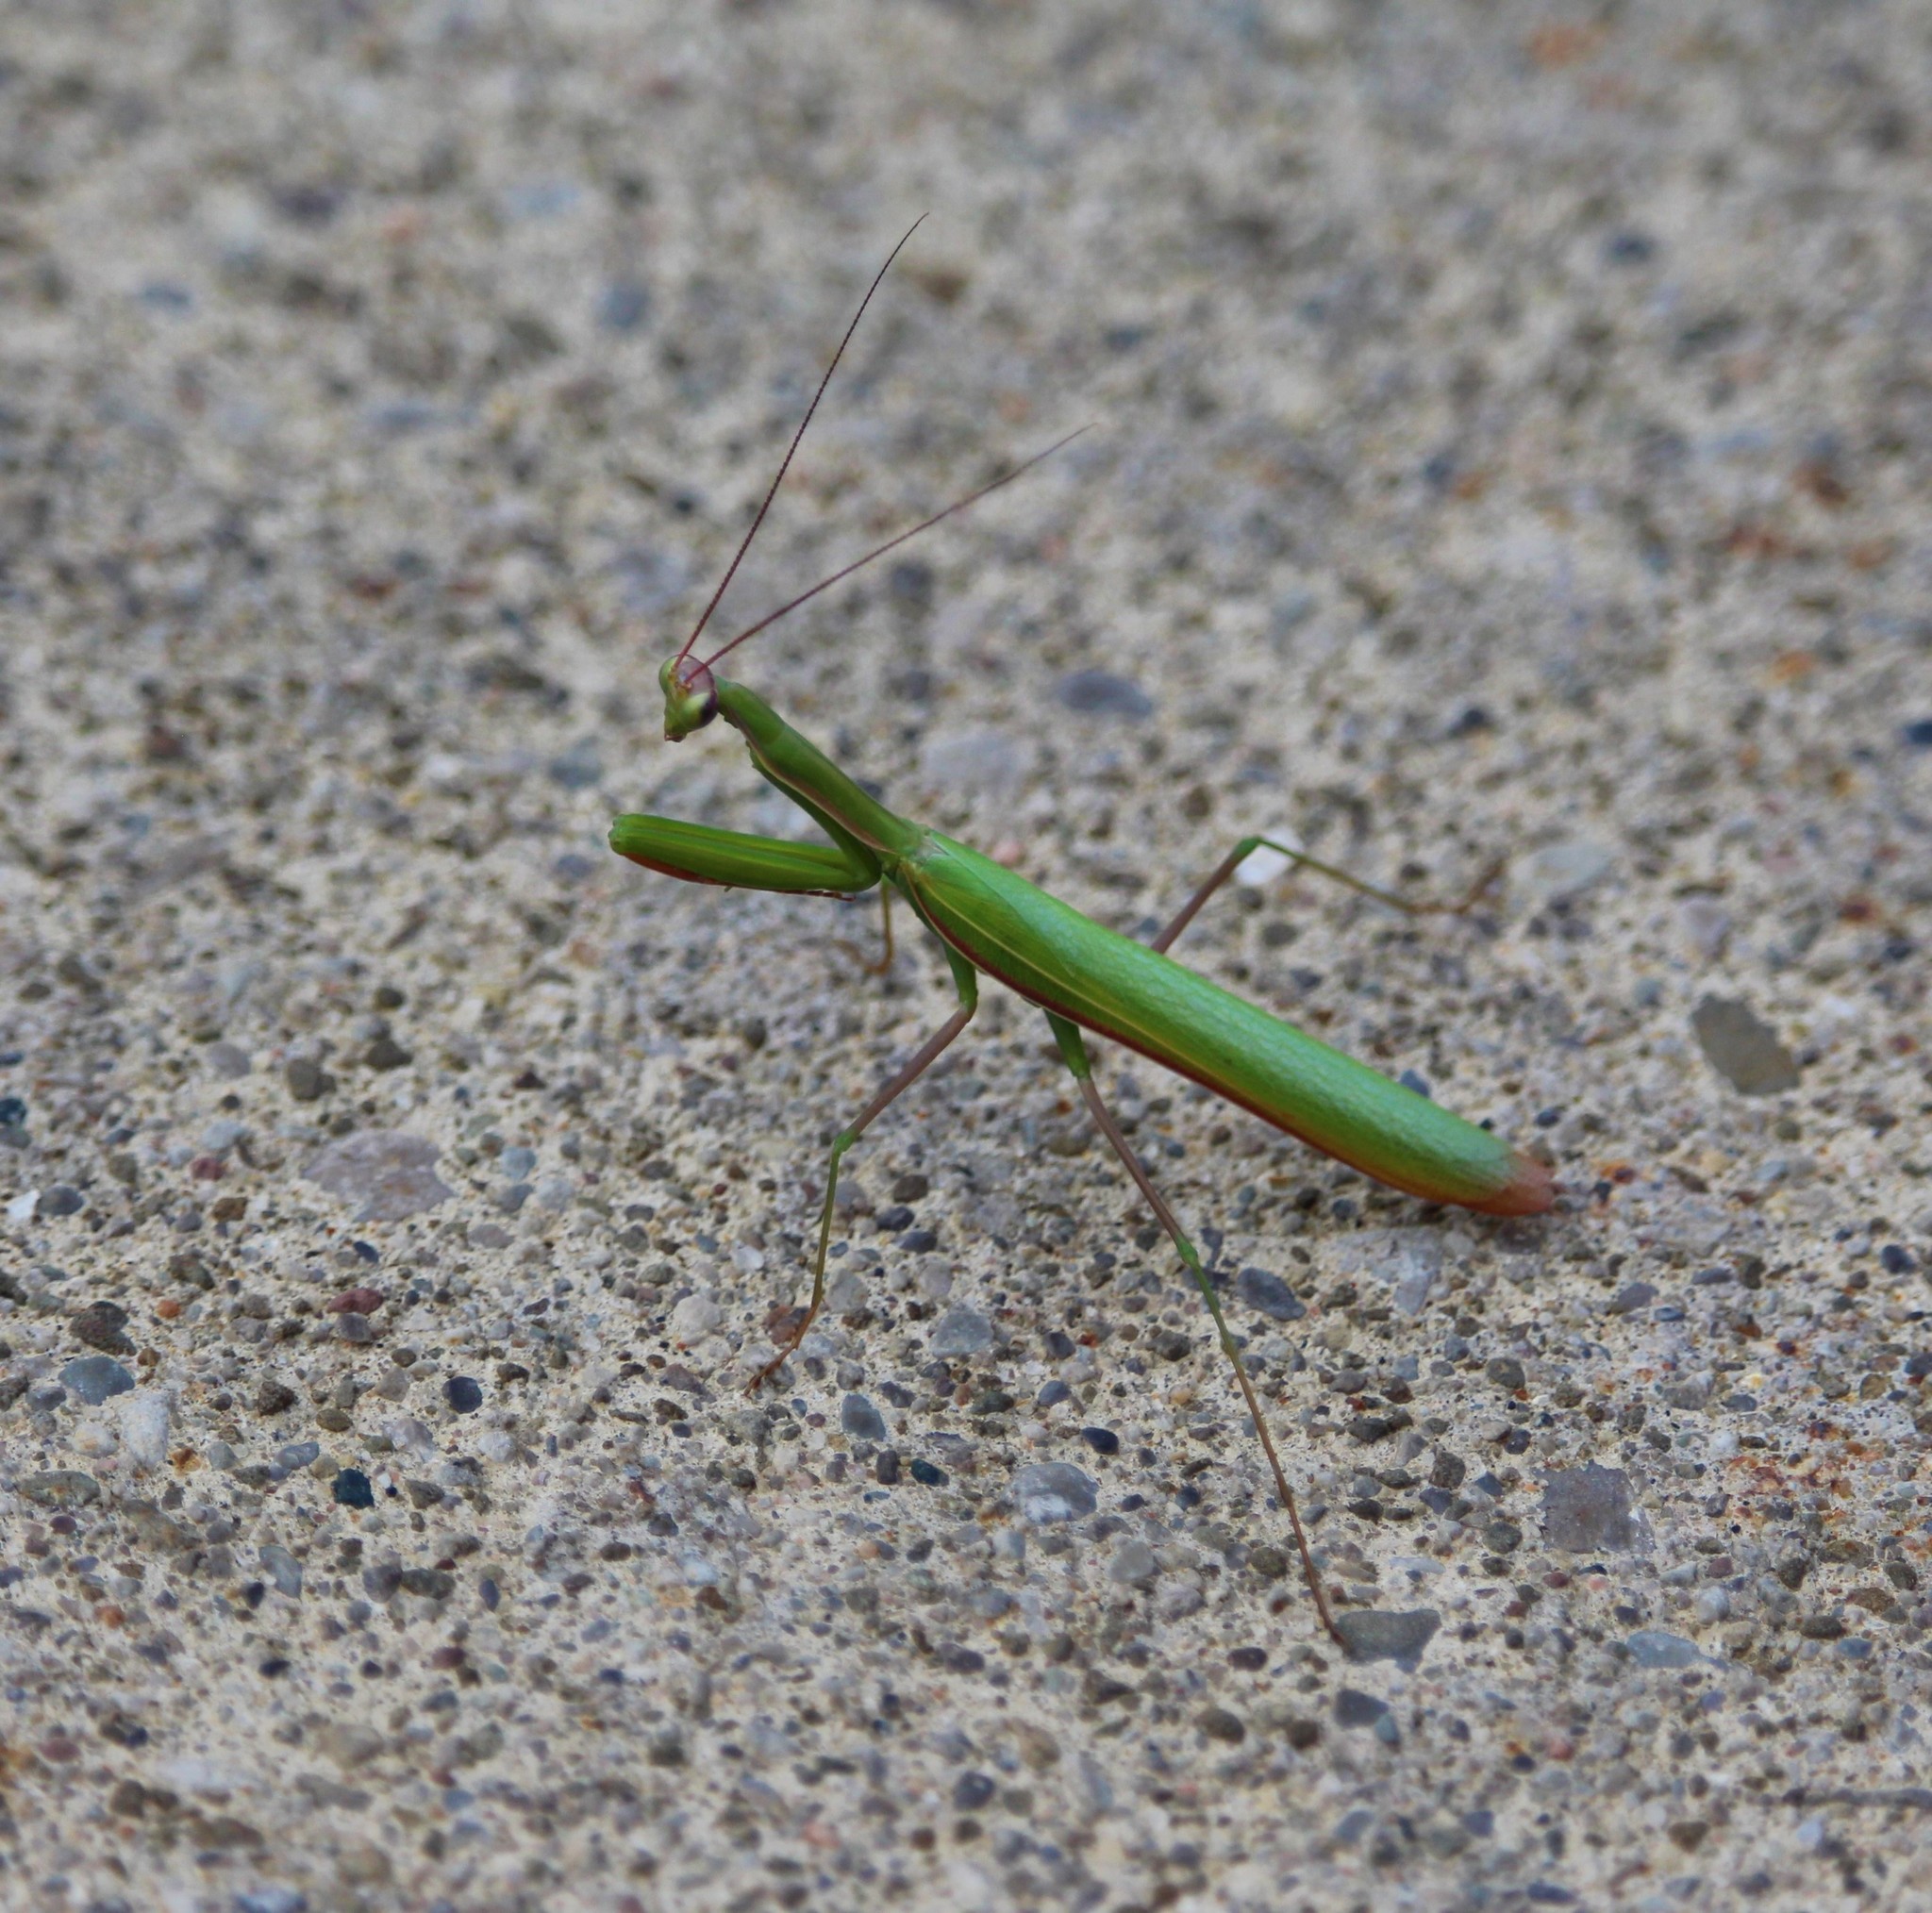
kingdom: Animalia
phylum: Arthropoda
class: Insecta
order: Mantodea
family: Mantidae
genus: Mantis
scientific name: Mantis religiosa
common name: Praying mantis
